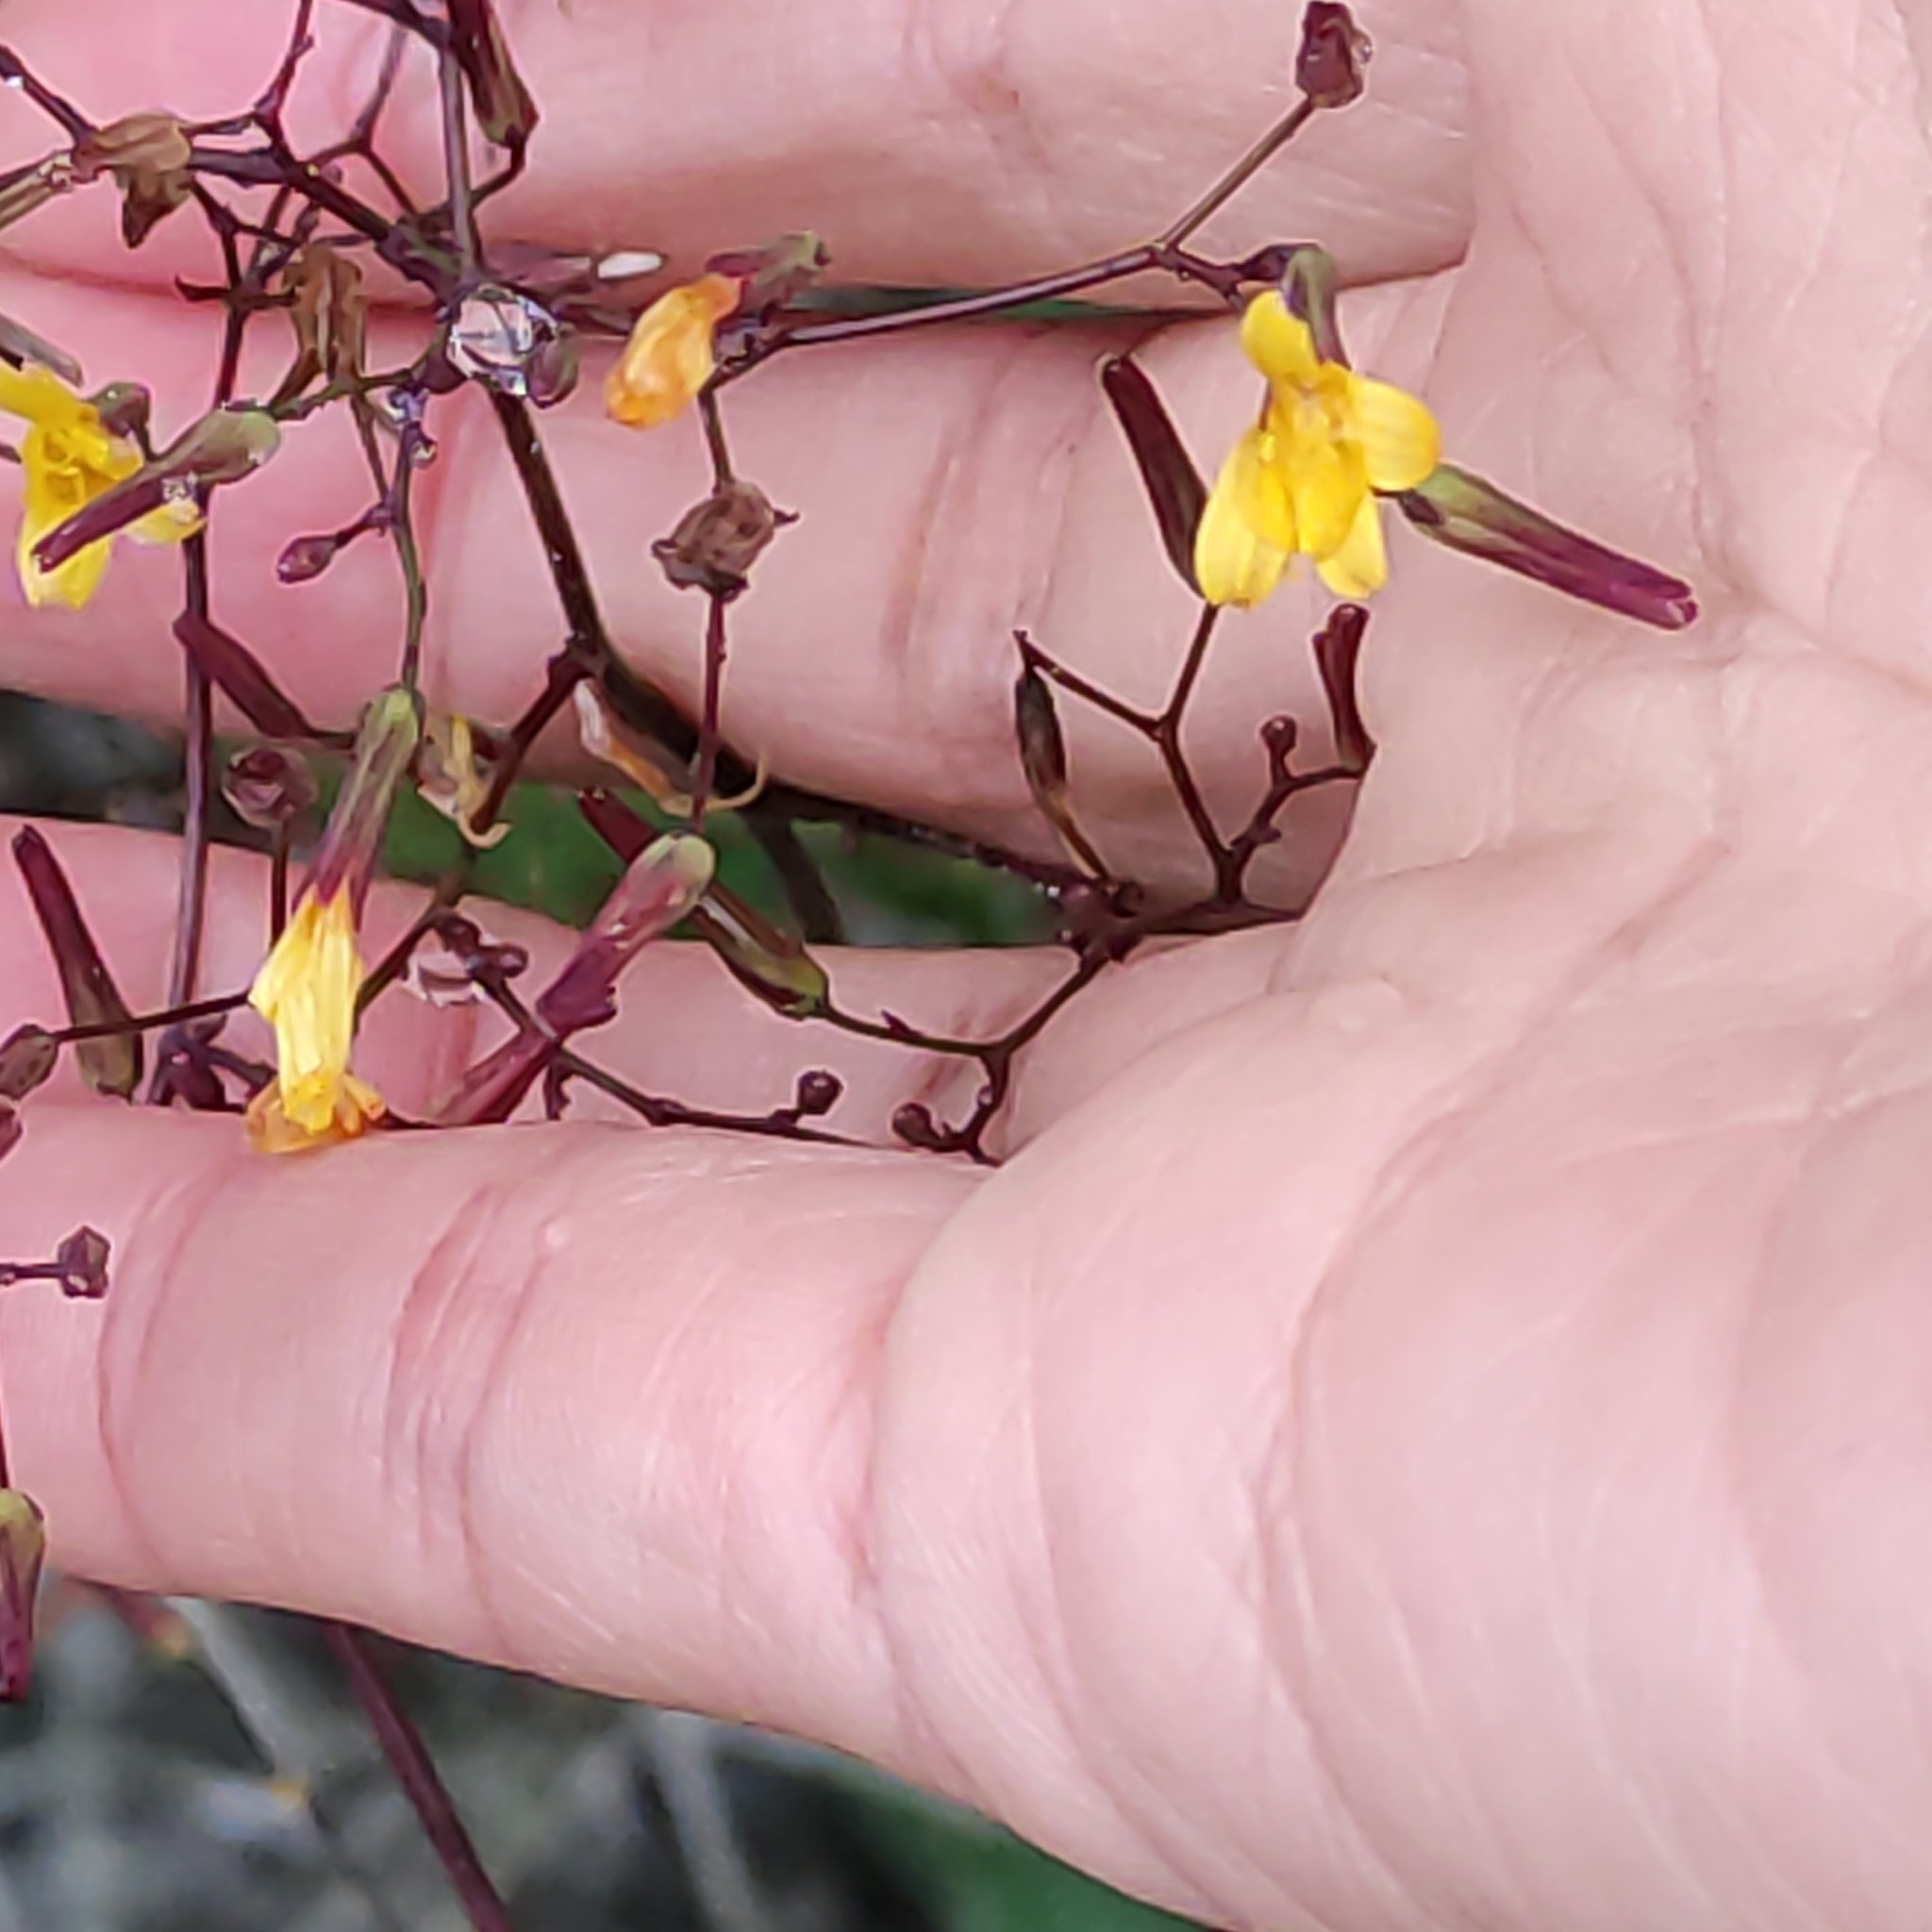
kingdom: Plantae
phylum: Tracheophyta
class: Magnoliopsida
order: Asterales
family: Asteraceae
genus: Mycelis
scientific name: Mycelis muralis
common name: Wall lettuce
